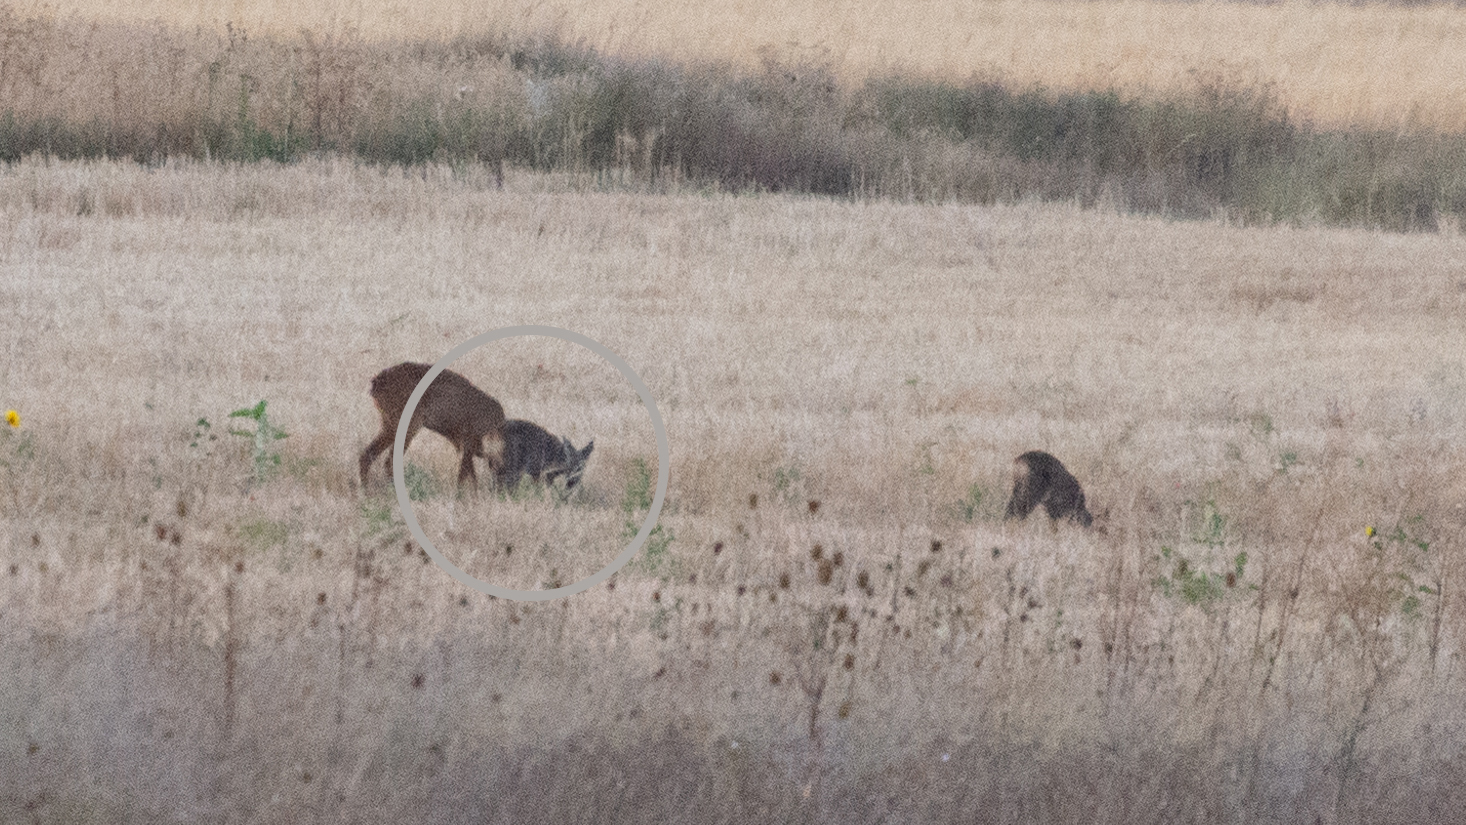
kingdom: Animalia
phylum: Chordata
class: Mammalia
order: Artiodactyla
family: Cervidae
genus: Capreolus
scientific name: Capreolus capreolus
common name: Western roe deer
